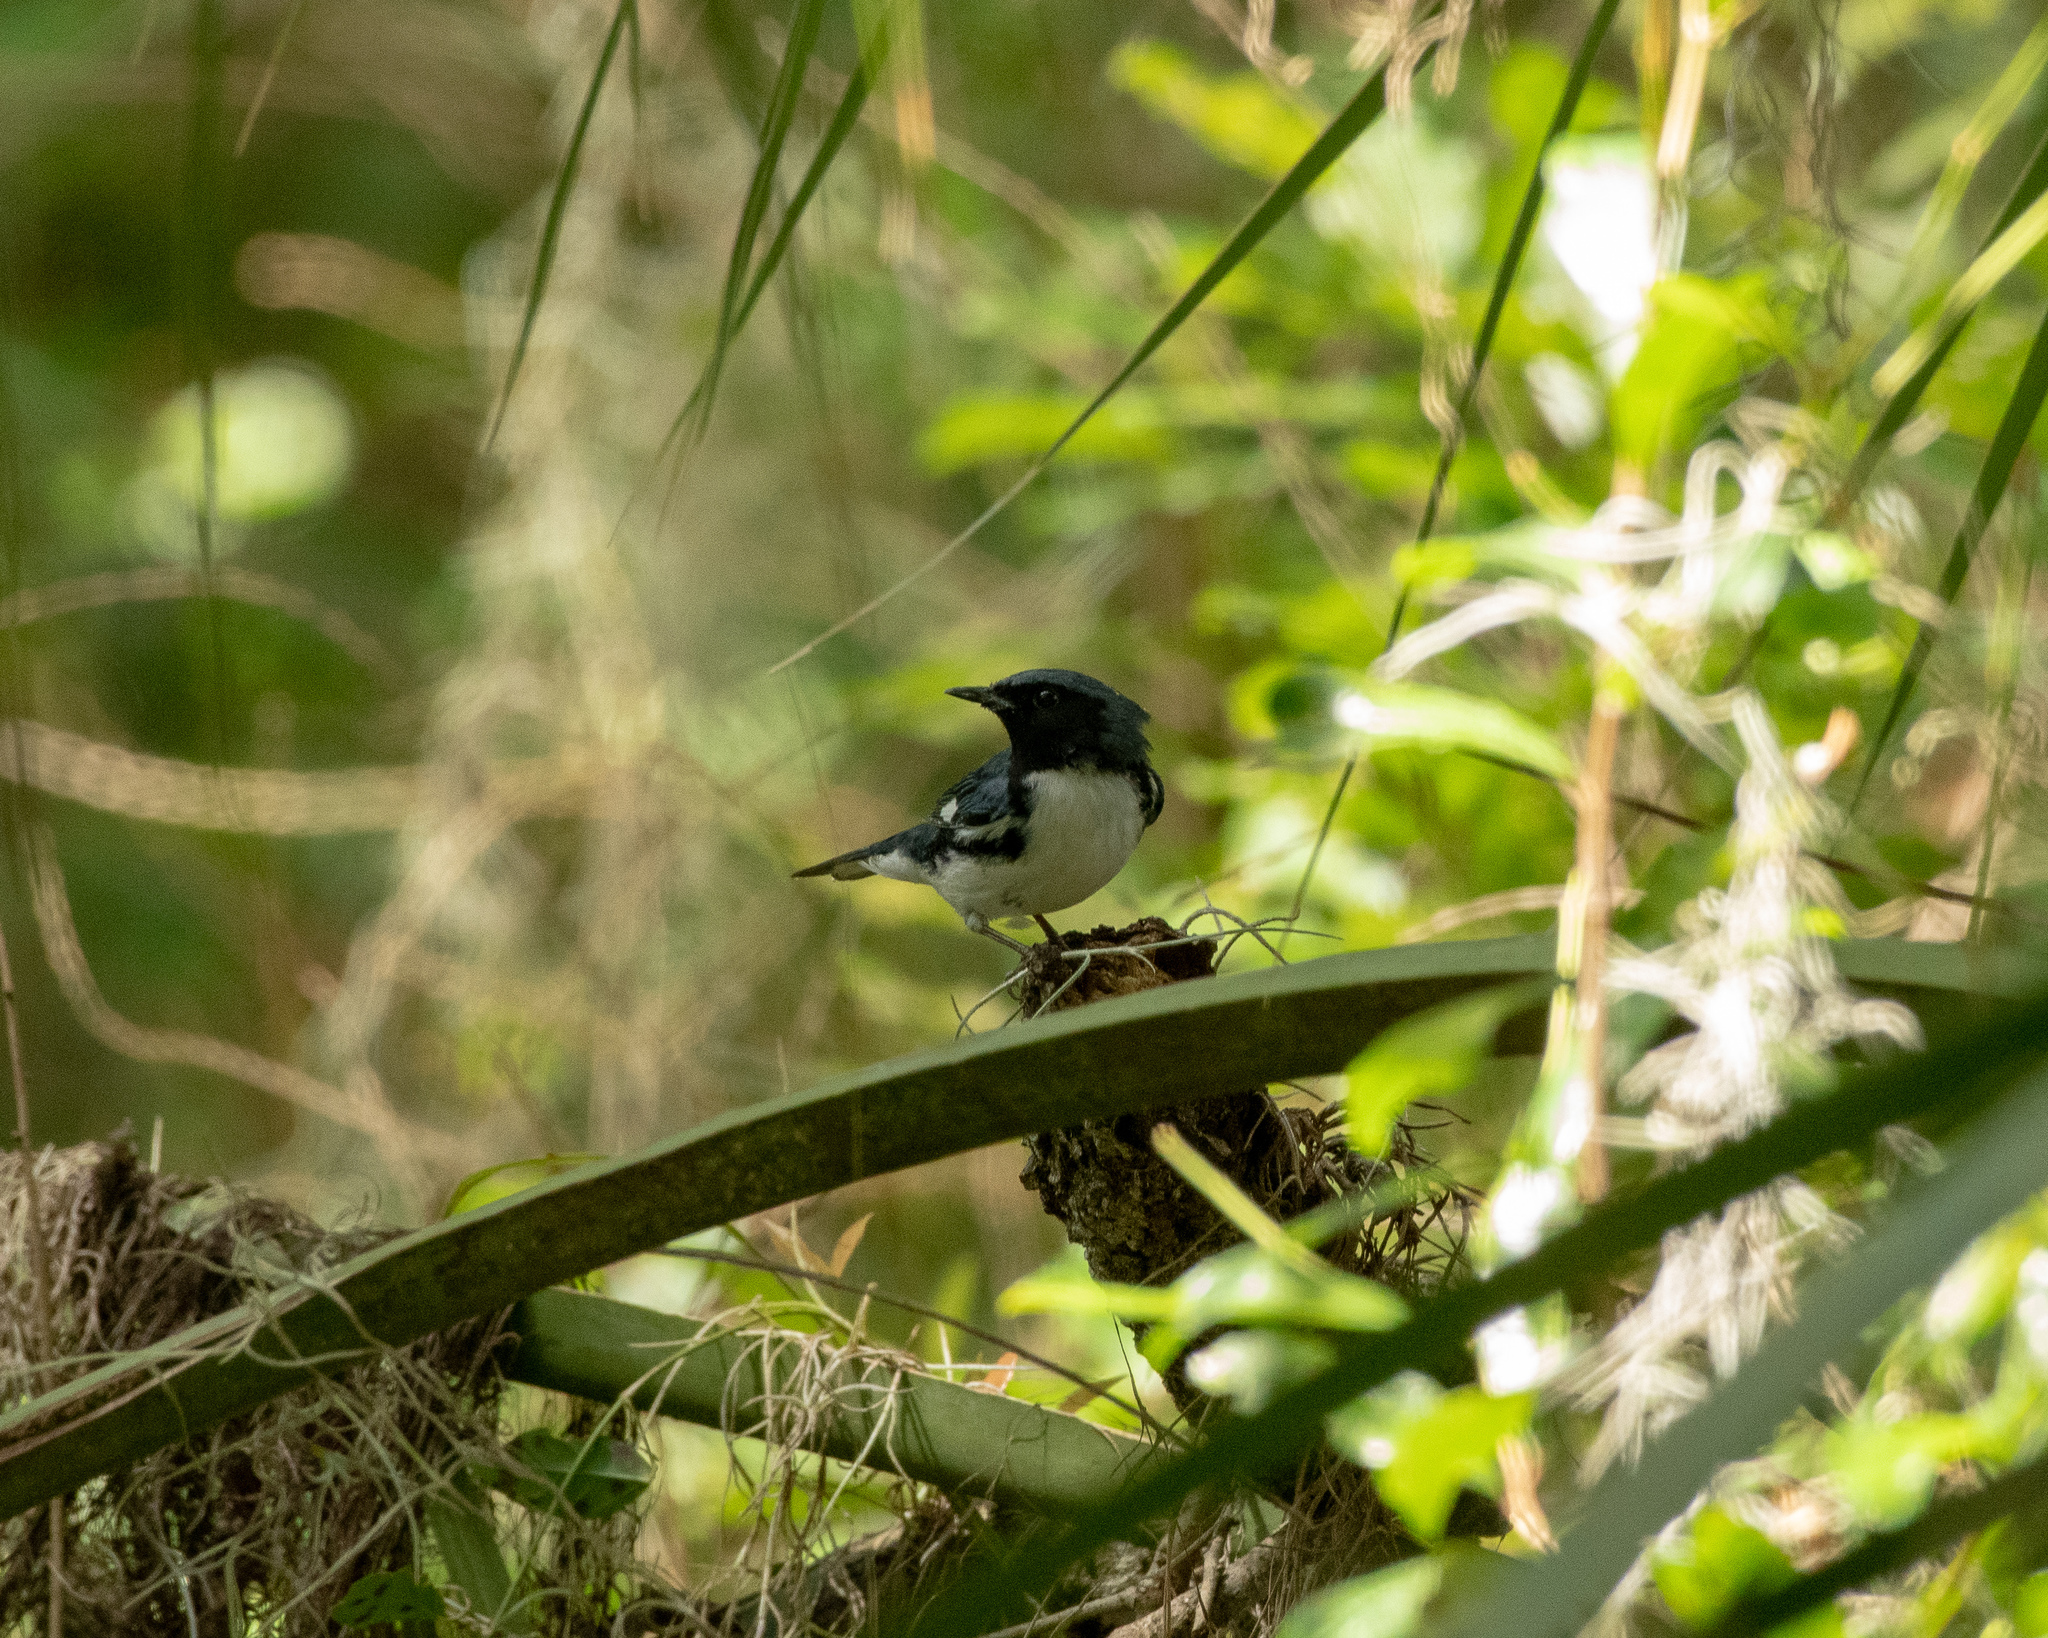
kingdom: Animalia
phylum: Chordata
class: Aves
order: Passeriformes
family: Parulidae
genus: Setophaga
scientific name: Setophaga caerulescens
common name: Black-throated blue warbler
